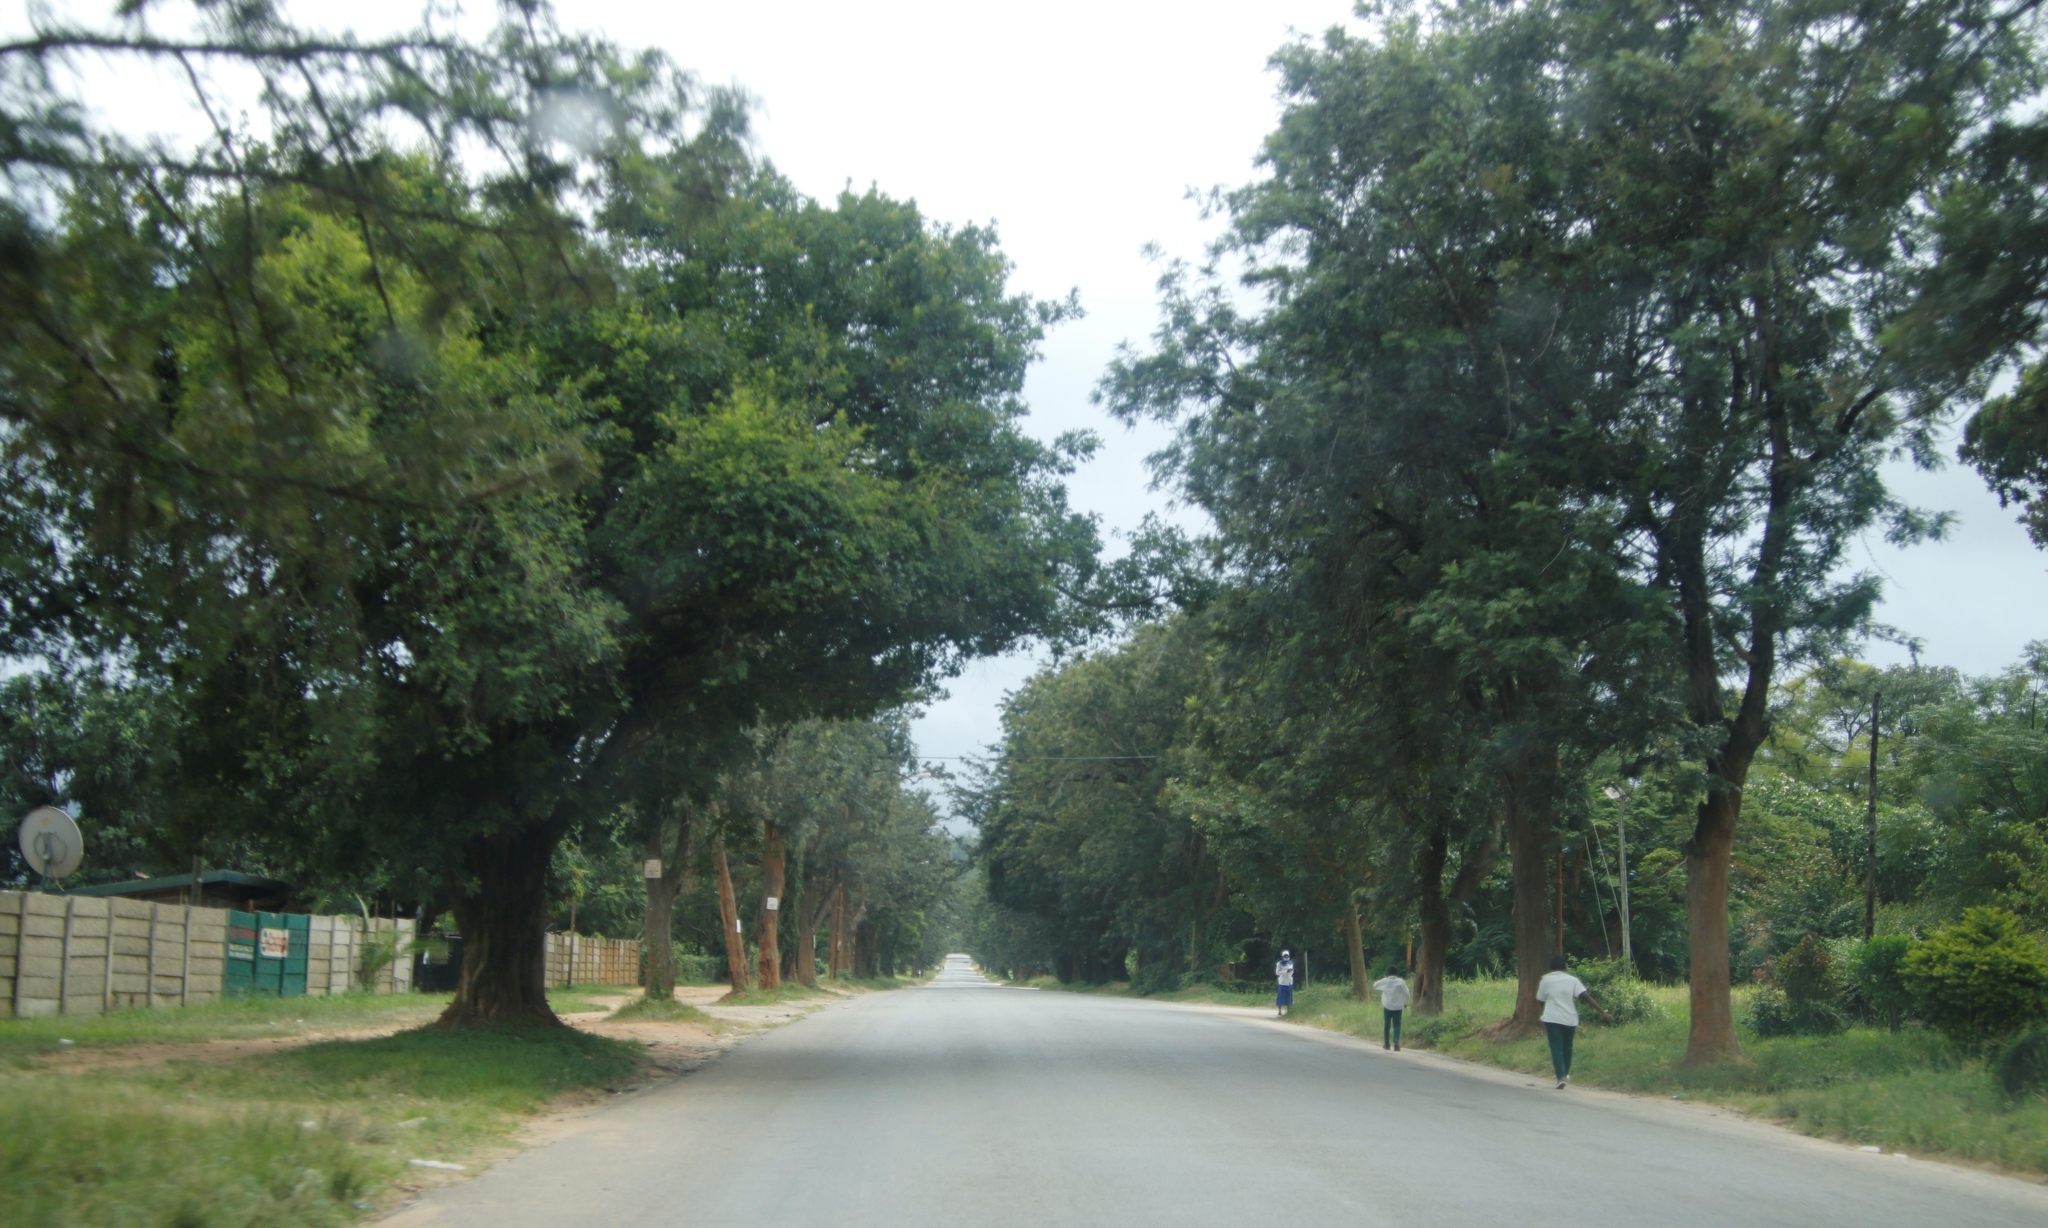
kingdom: Plantae
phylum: Tracheophyta
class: Magnoliopsida
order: Proteales
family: Proteaceae
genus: Grevillea
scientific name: Grevillea robusta
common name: Silkoak
